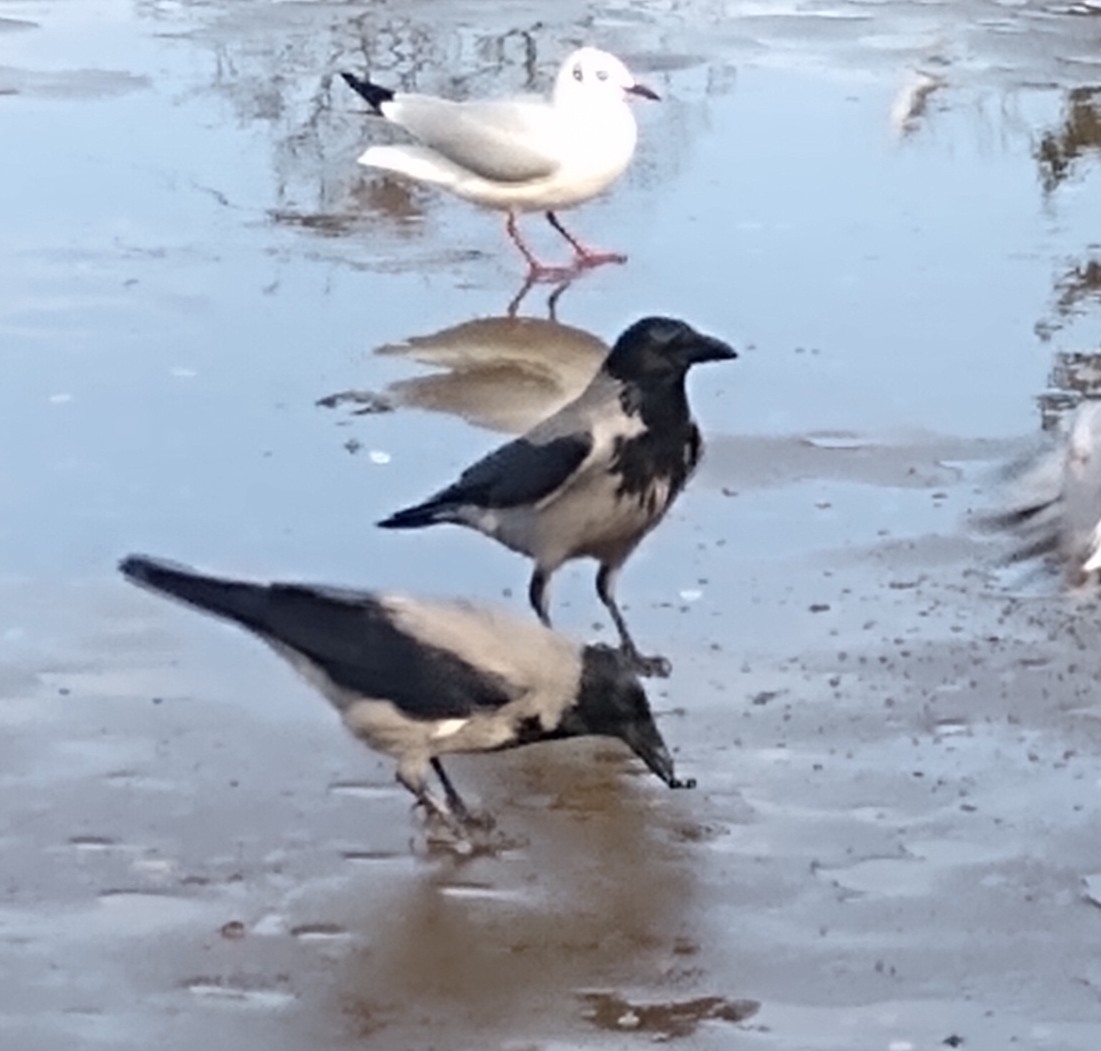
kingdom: Animalia
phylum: Chordata
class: Aves
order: Passeriformes
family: Corvidae
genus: Corvus
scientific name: Corvus cornix
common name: Hooded crow
